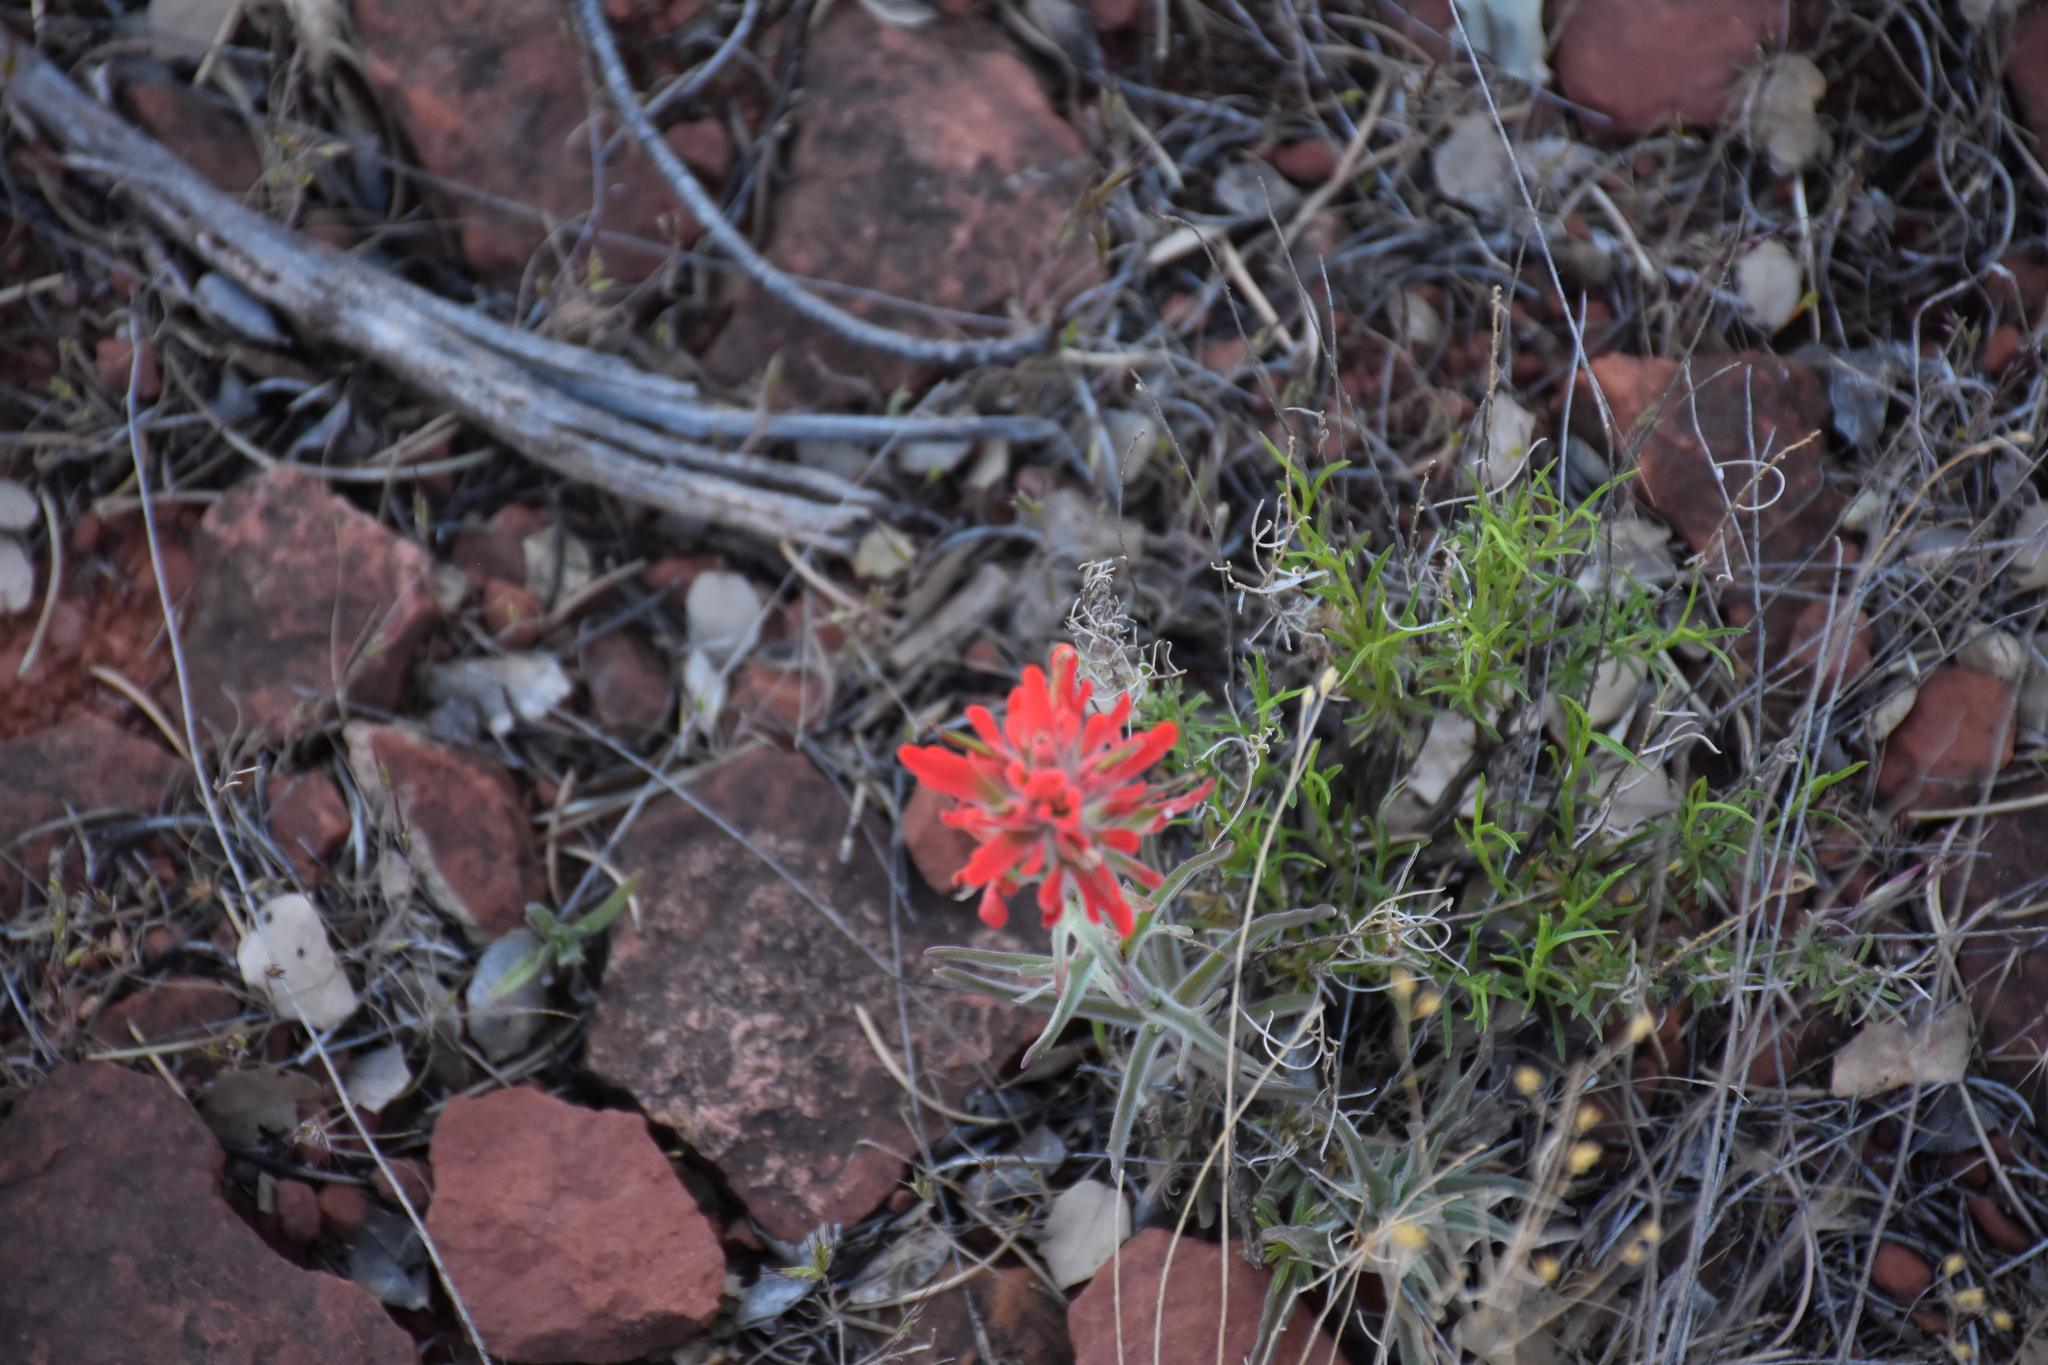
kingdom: Plantae
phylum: Tracheophyta
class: Magnoliopsida
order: Lamiales
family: Orobanchaceae
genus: Castilleja
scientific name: Castilleja chromosa
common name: Desert paintbrush
